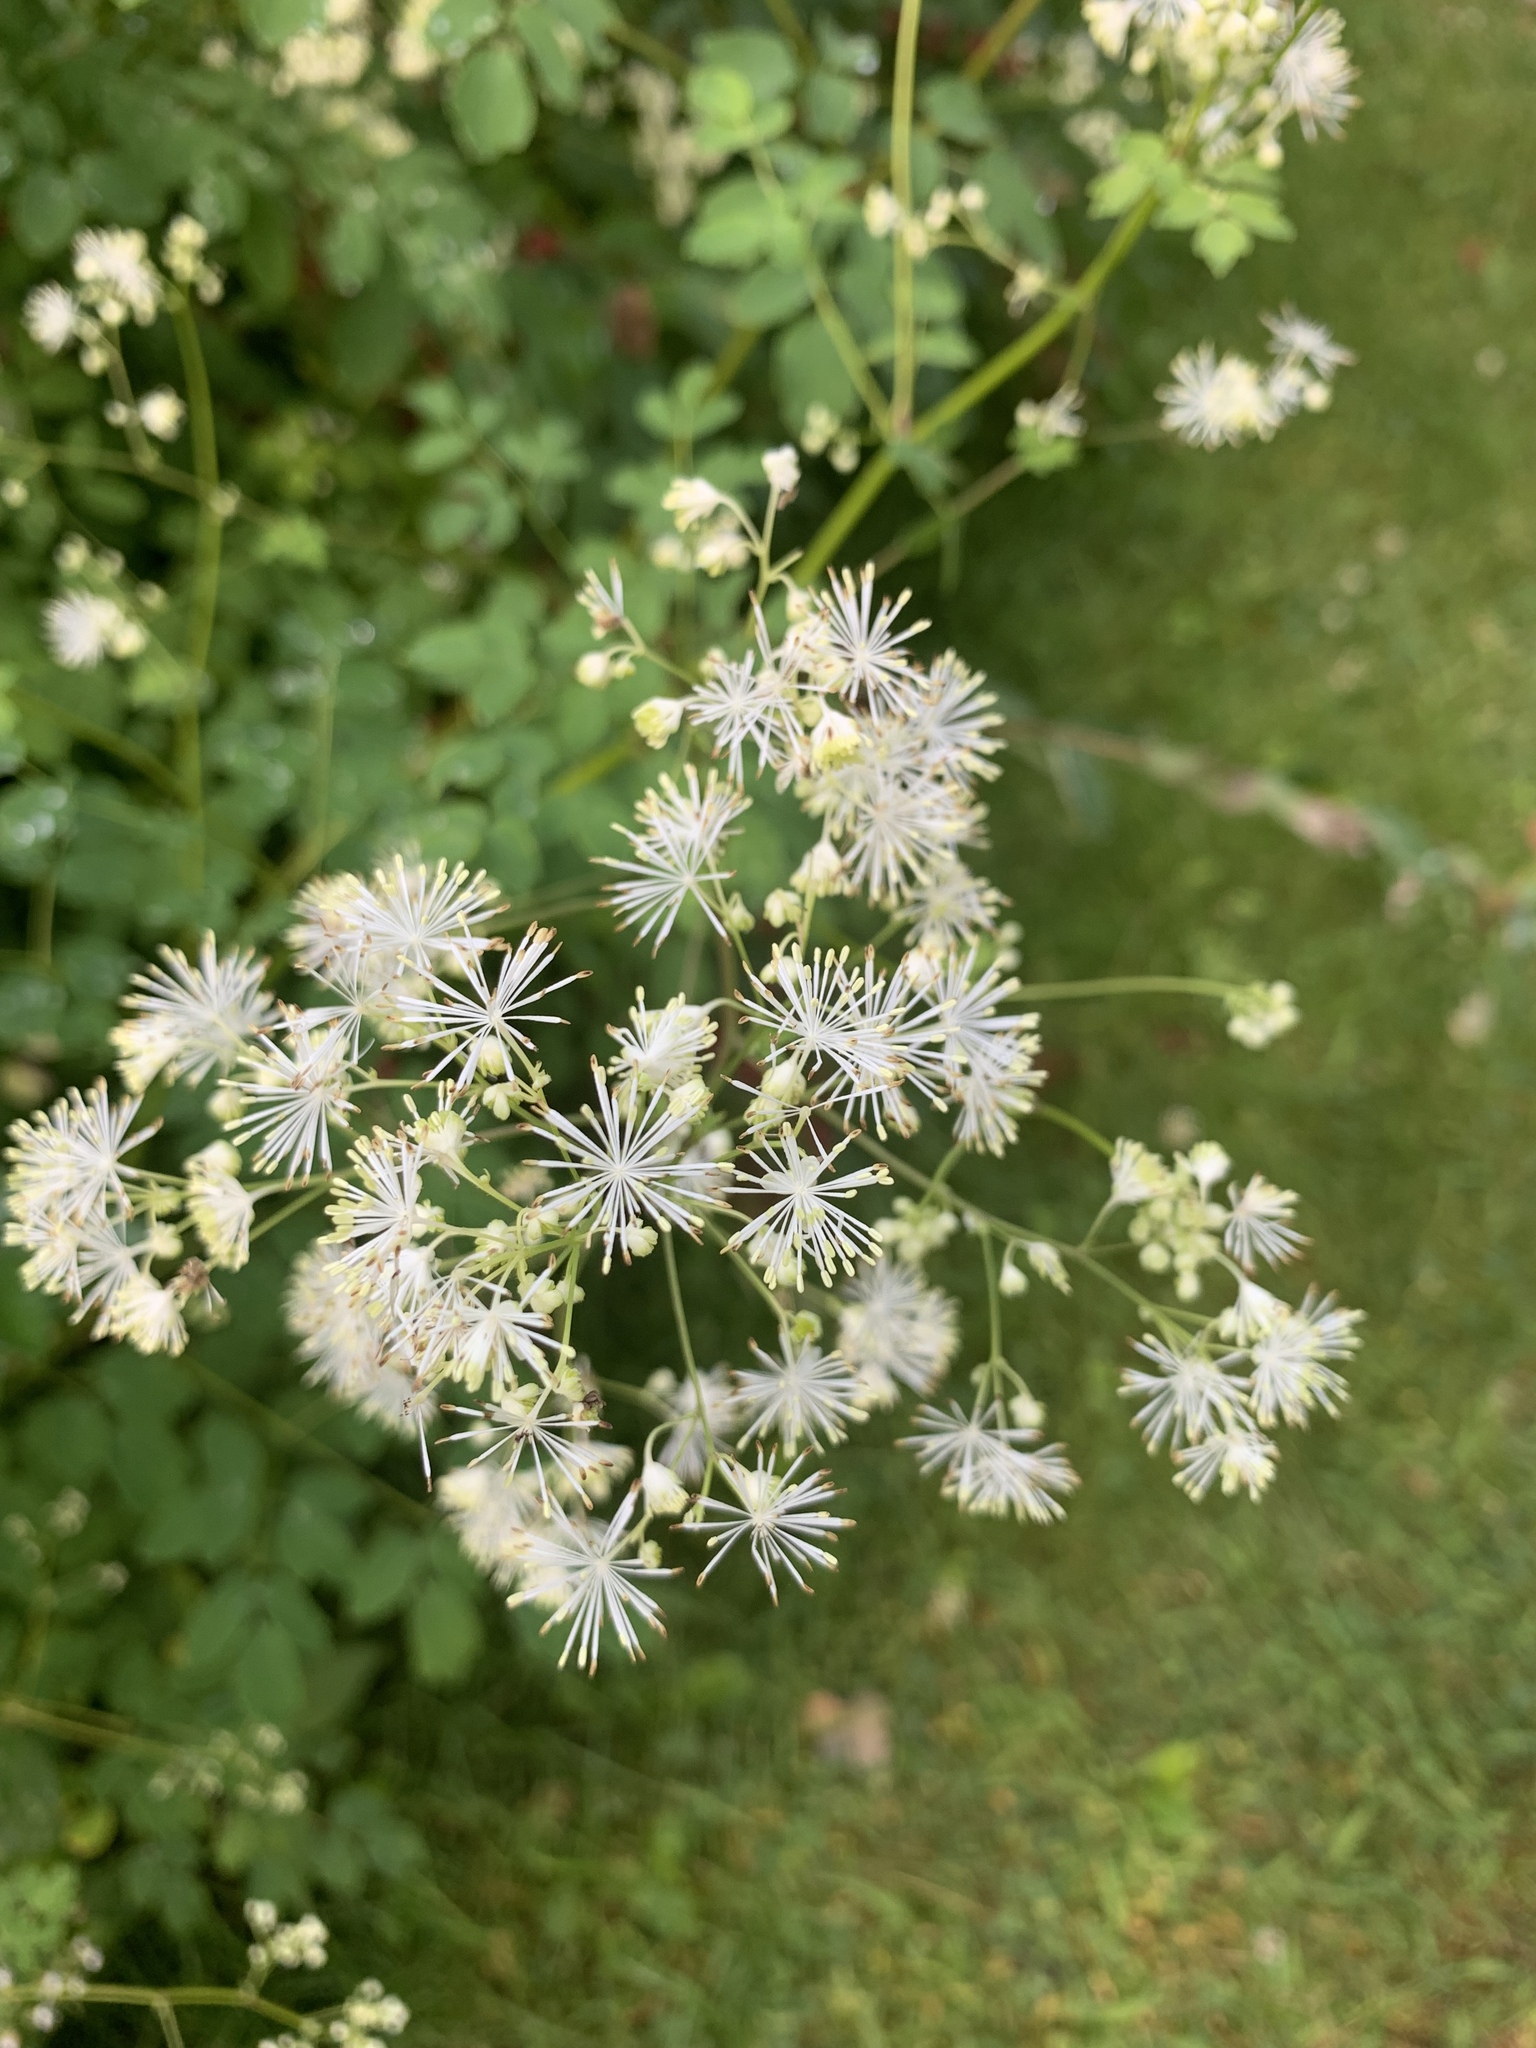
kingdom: Plantae
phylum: Tracheophyta
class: Magnoliopsida
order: Ranunculales
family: Ranunculaceae
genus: Thalictrum
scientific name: Thalictrum pubescens
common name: King-of-the-meadow
